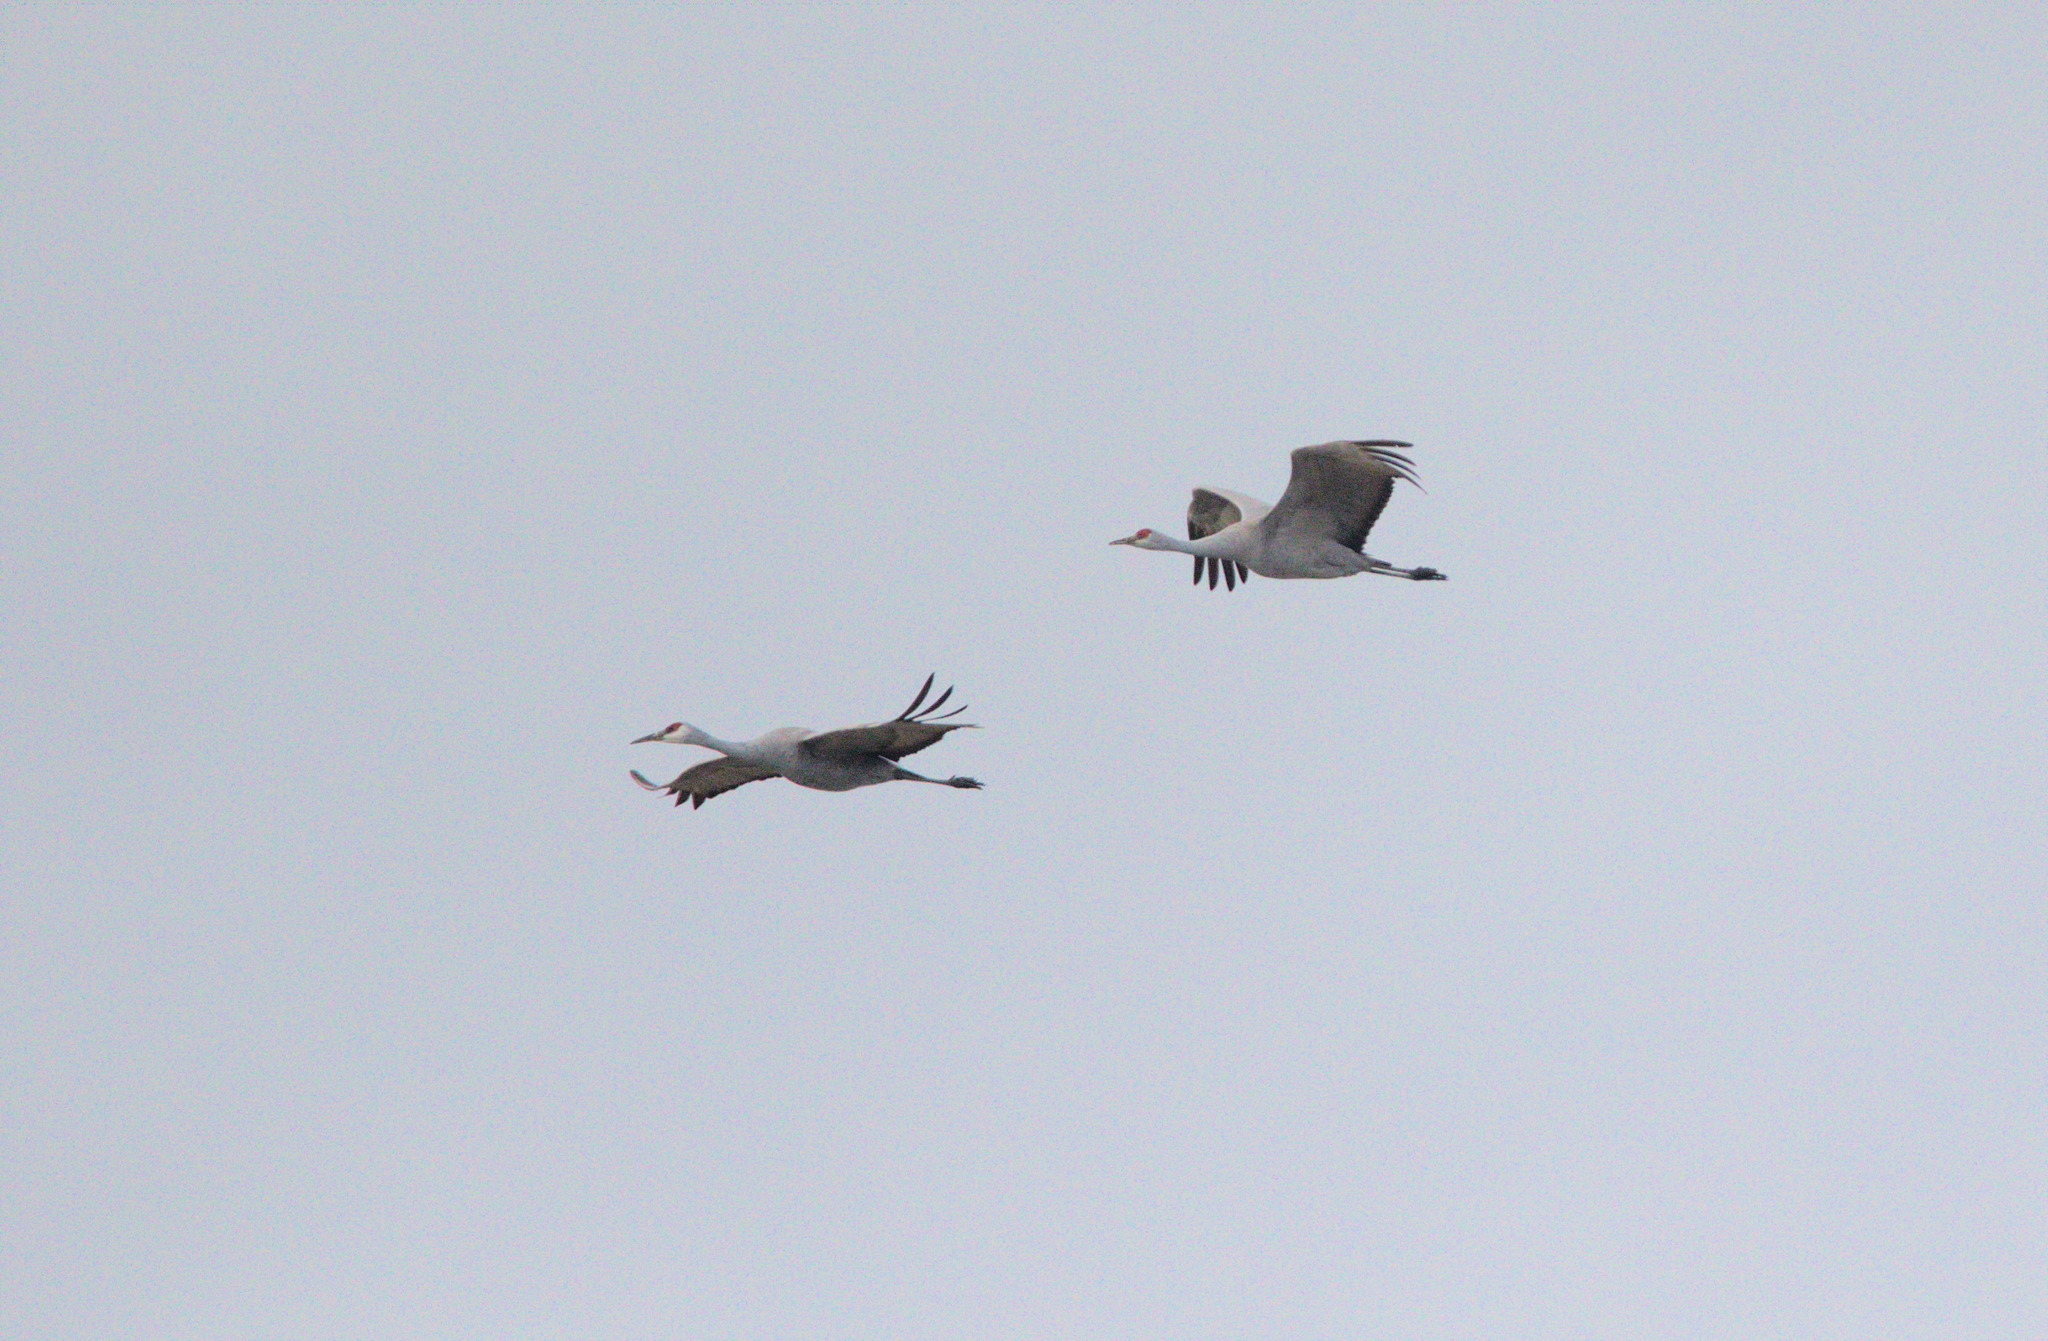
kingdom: Animalia
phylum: Chordata
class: Aves
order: Gruiformes
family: Gruidae
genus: Grus
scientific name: Grus canadensis
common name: Sandhill crane
